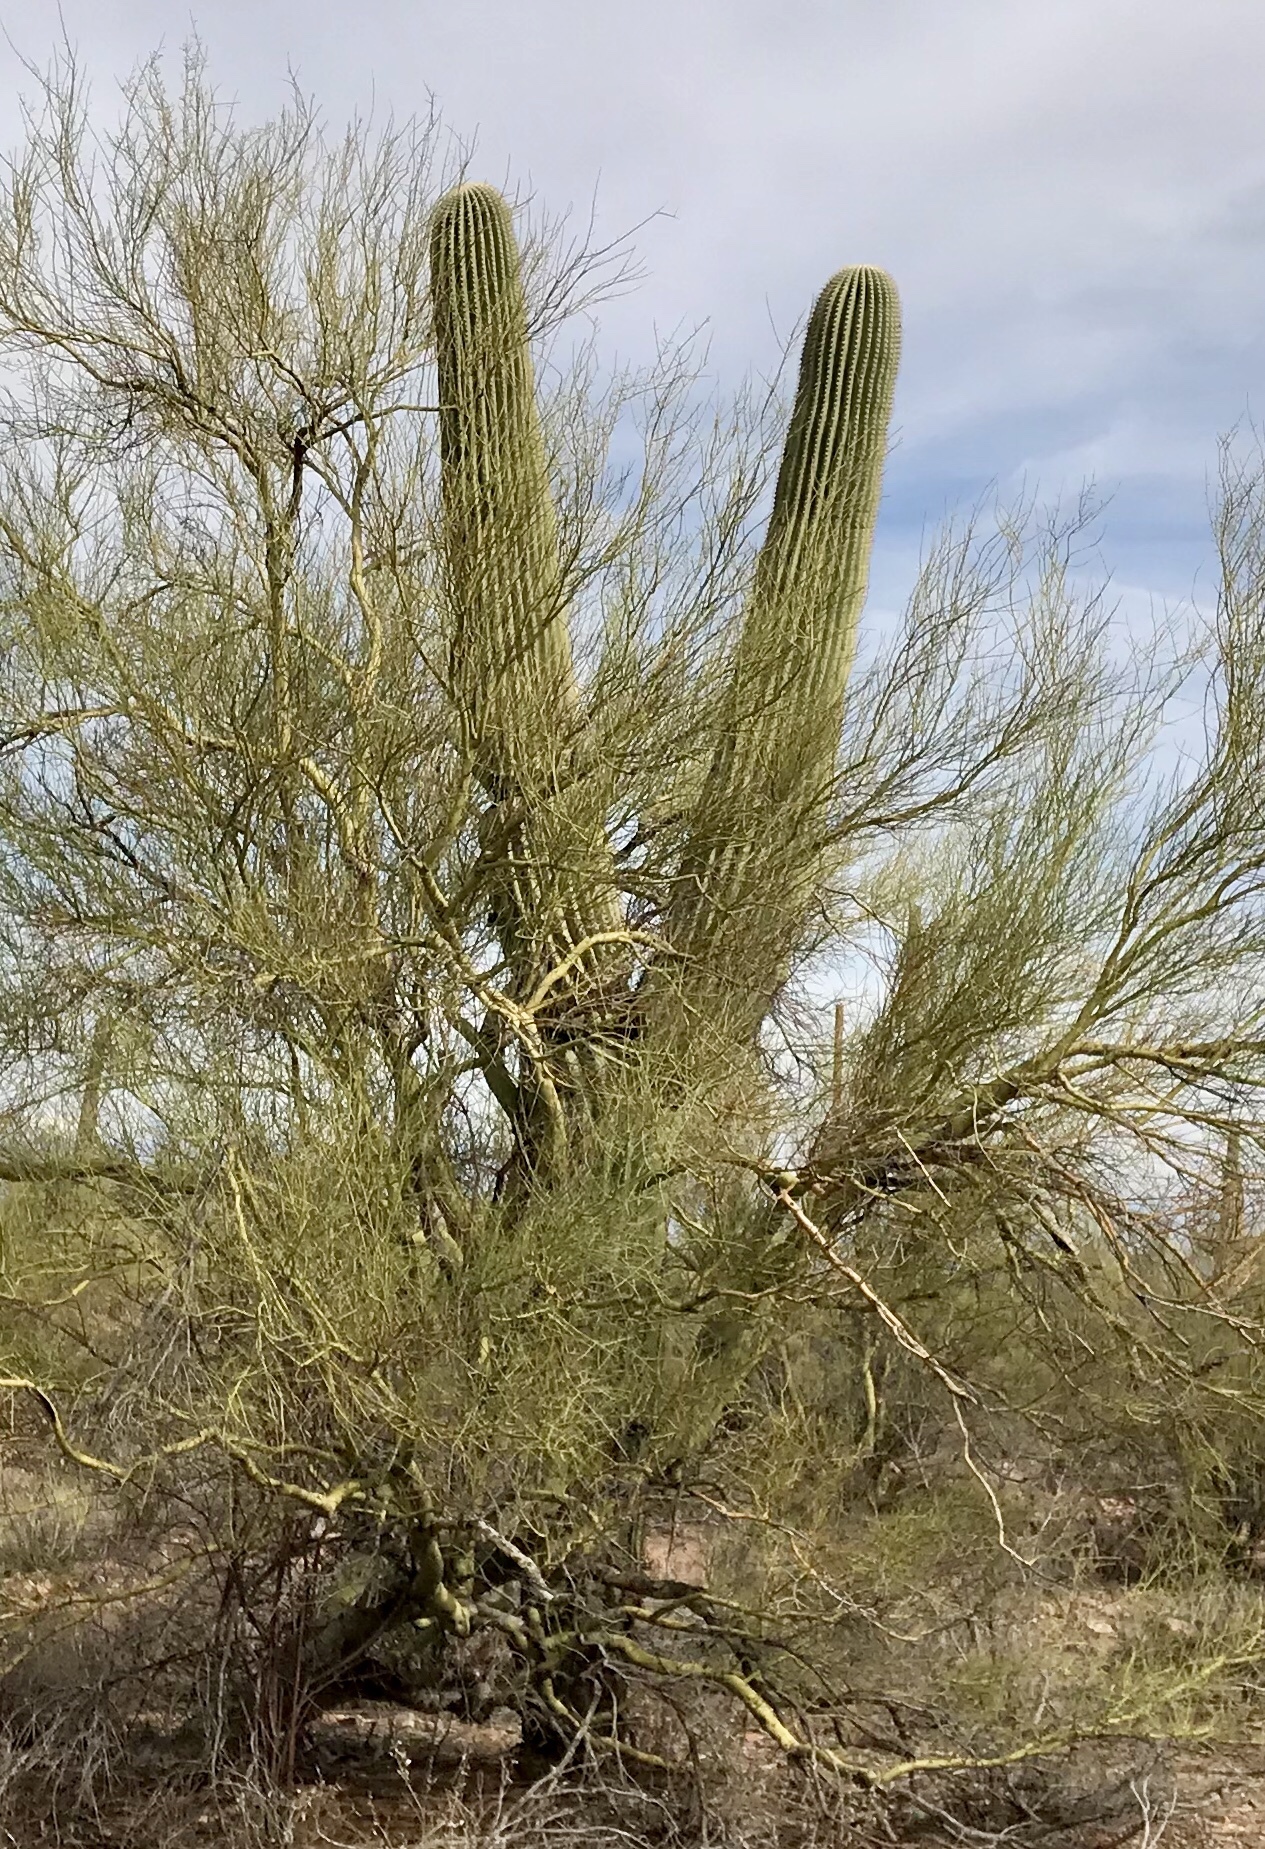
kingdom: Plantae
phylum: Tracheophyta
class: Magnoliopsida
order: Caryophyllales
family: Cactaceae
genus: Carnegiea
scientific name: Carnegiea gigantea
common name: Saguaro
